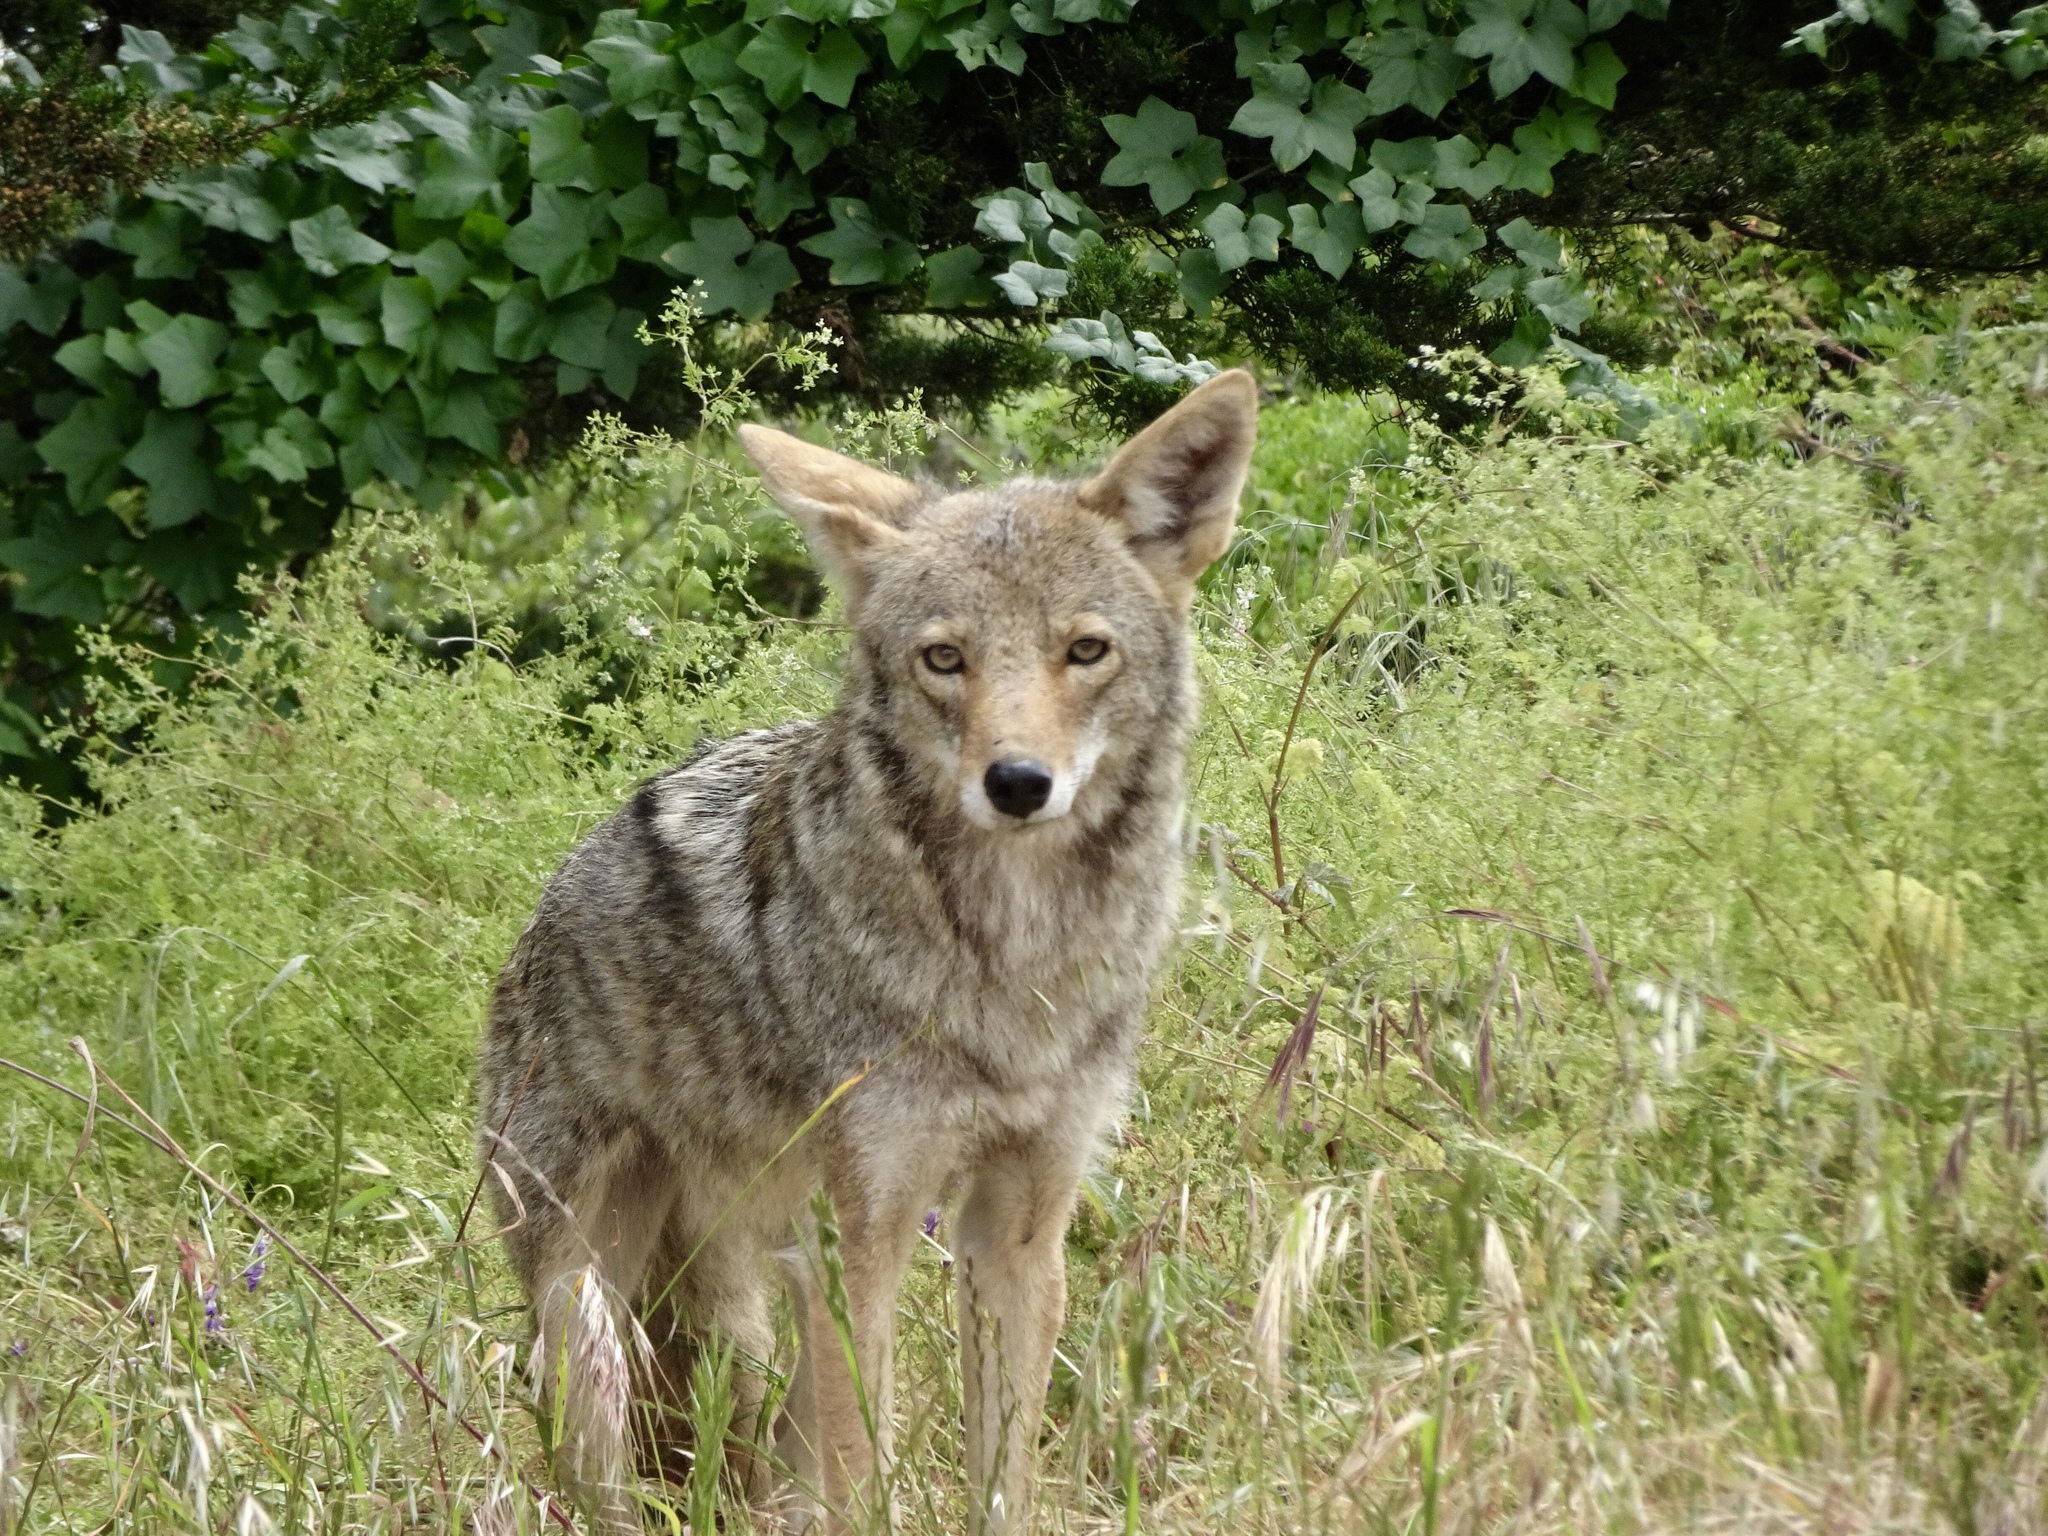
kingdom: Animalia
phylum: Chordata
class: Mammalia
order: Carnivora
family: Canidae
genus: Canis
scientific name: Canis latrans
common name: Coyote
